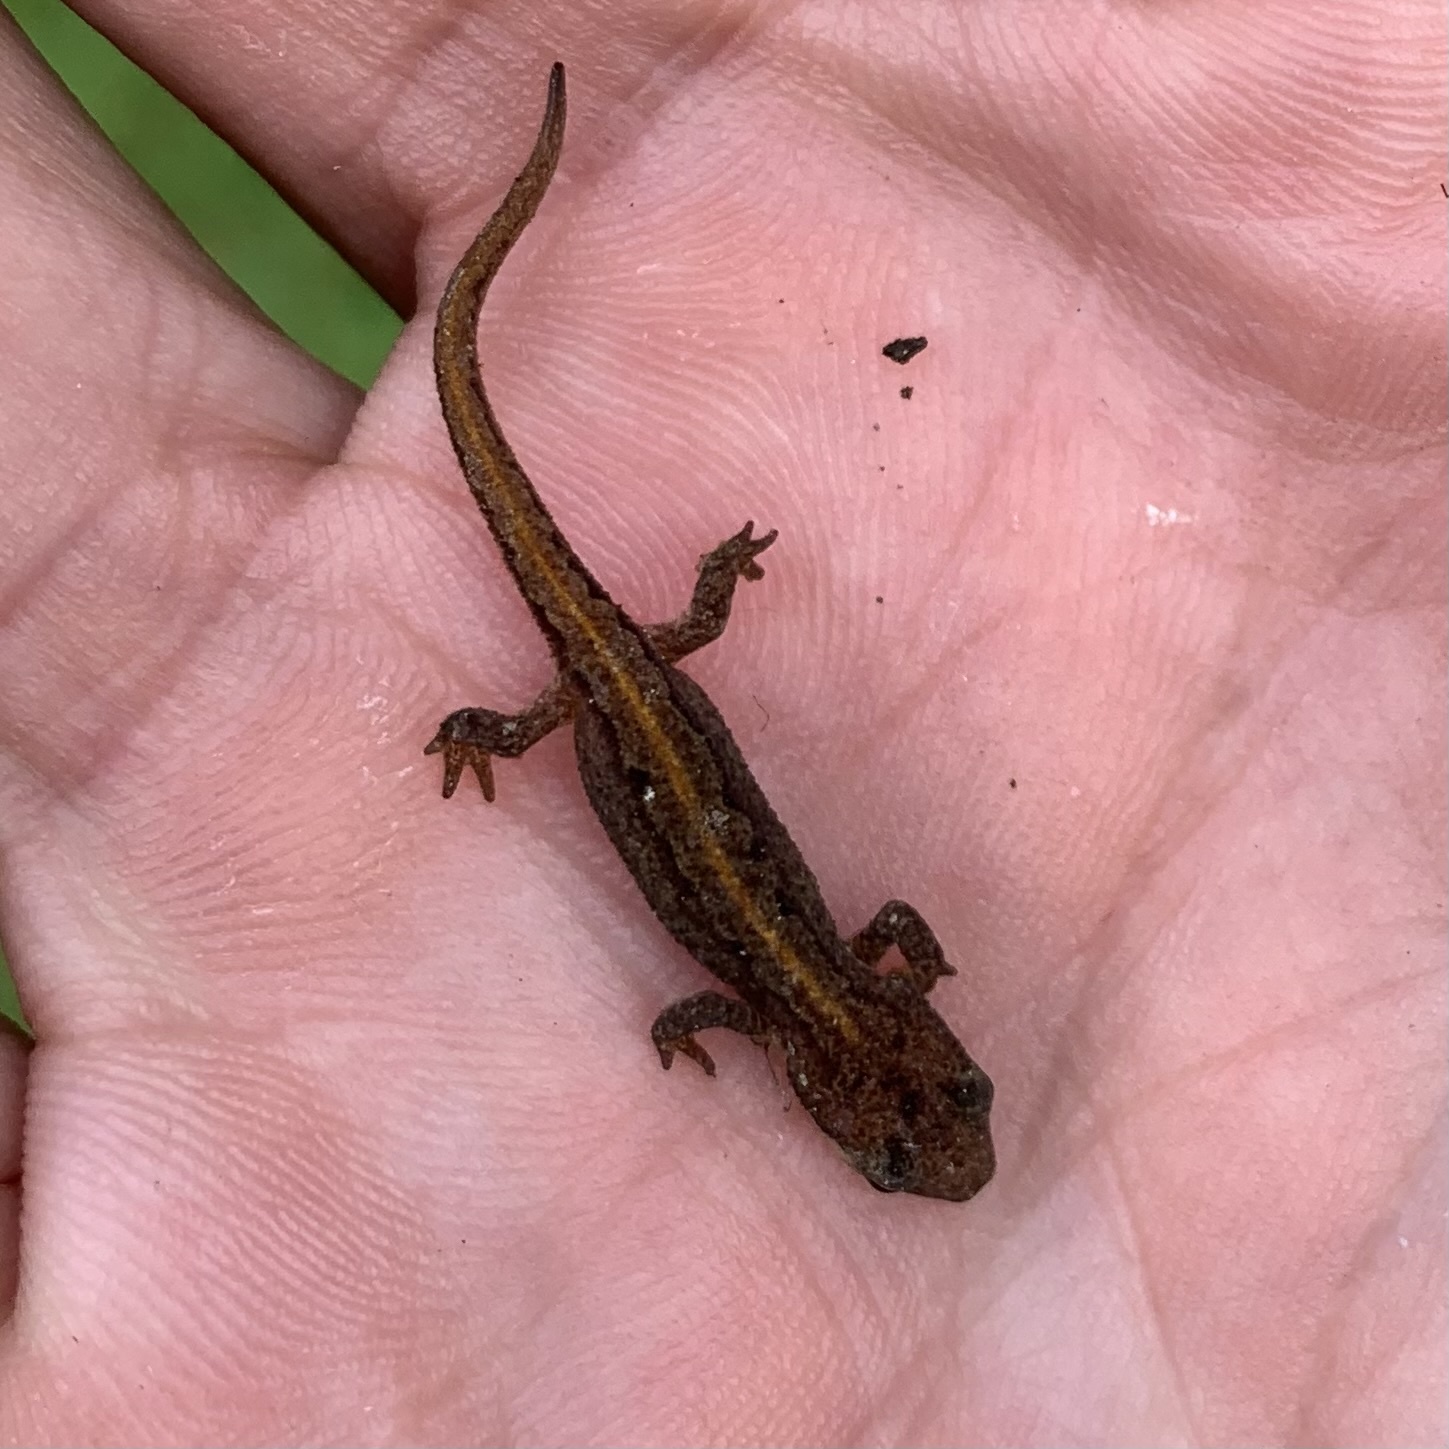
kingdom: Animalia
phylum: Chordata
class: Amphibia
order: Caudata
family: Salamandridae
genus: Lissotriton
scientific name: Lissotriton vulgaris
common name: Smooth newt
